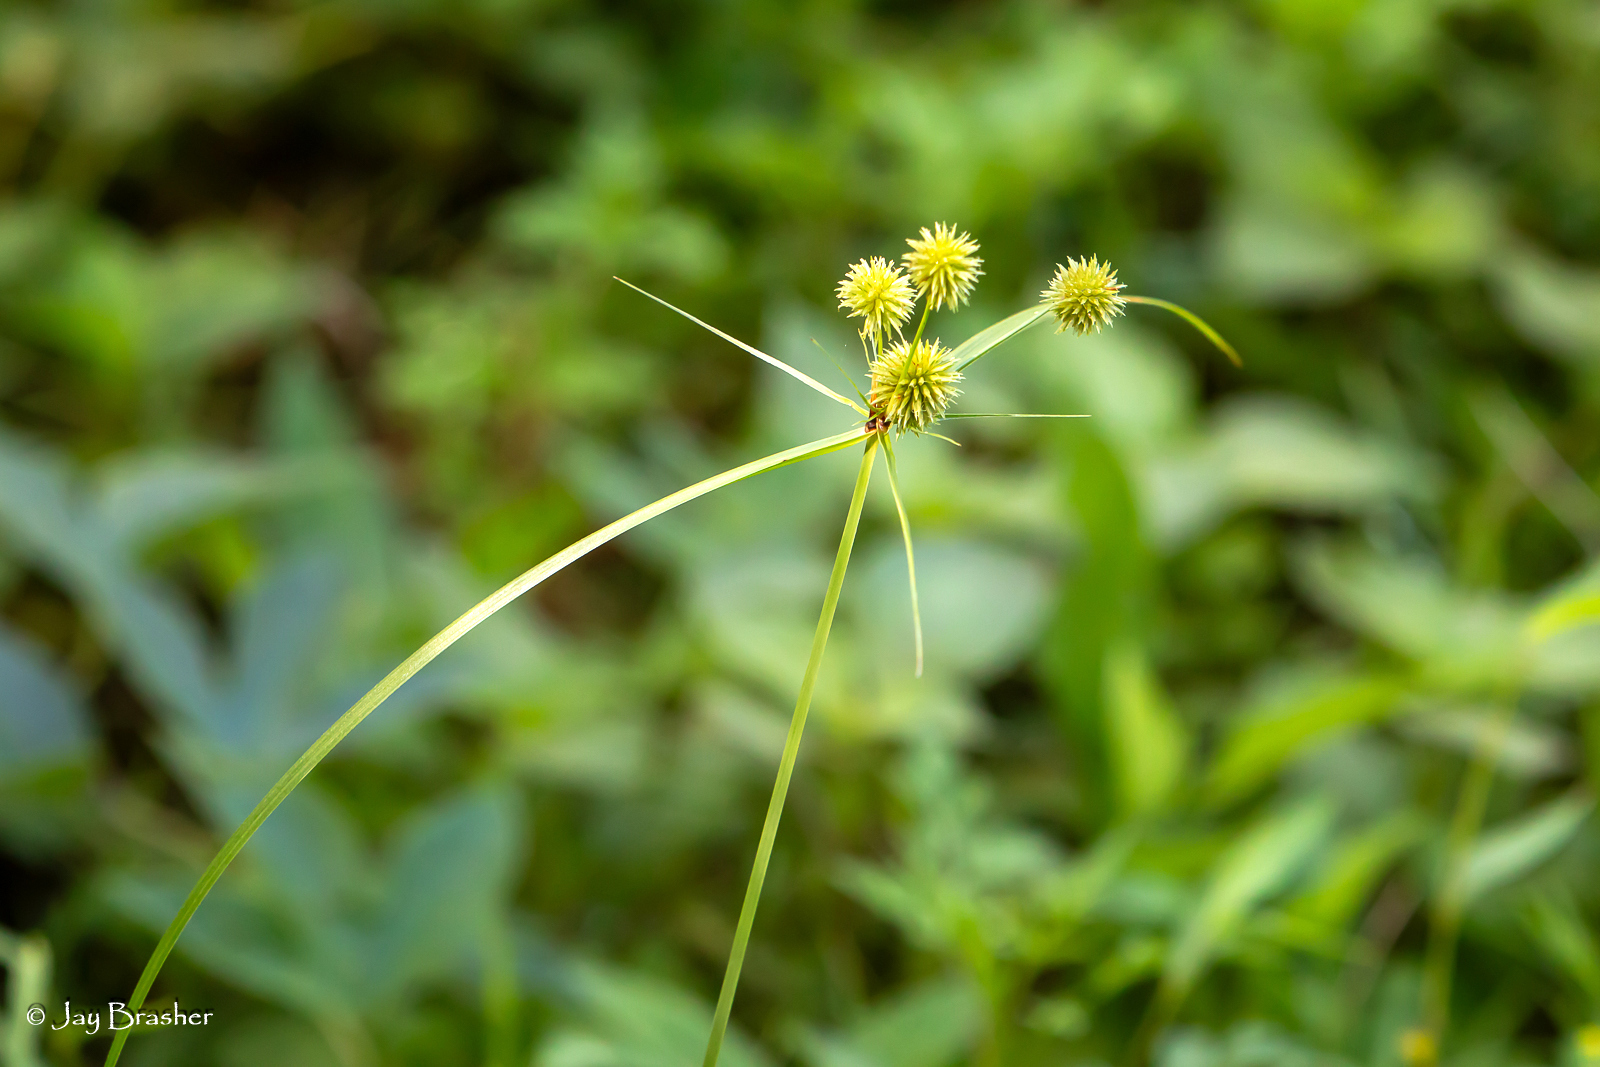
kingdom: Plantae
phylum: Tracheophyta
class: Liliopsida
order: Poales
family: Cyperaceae
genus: Cyperus
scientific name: Cyperus echinatus
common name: Teasel sedge
